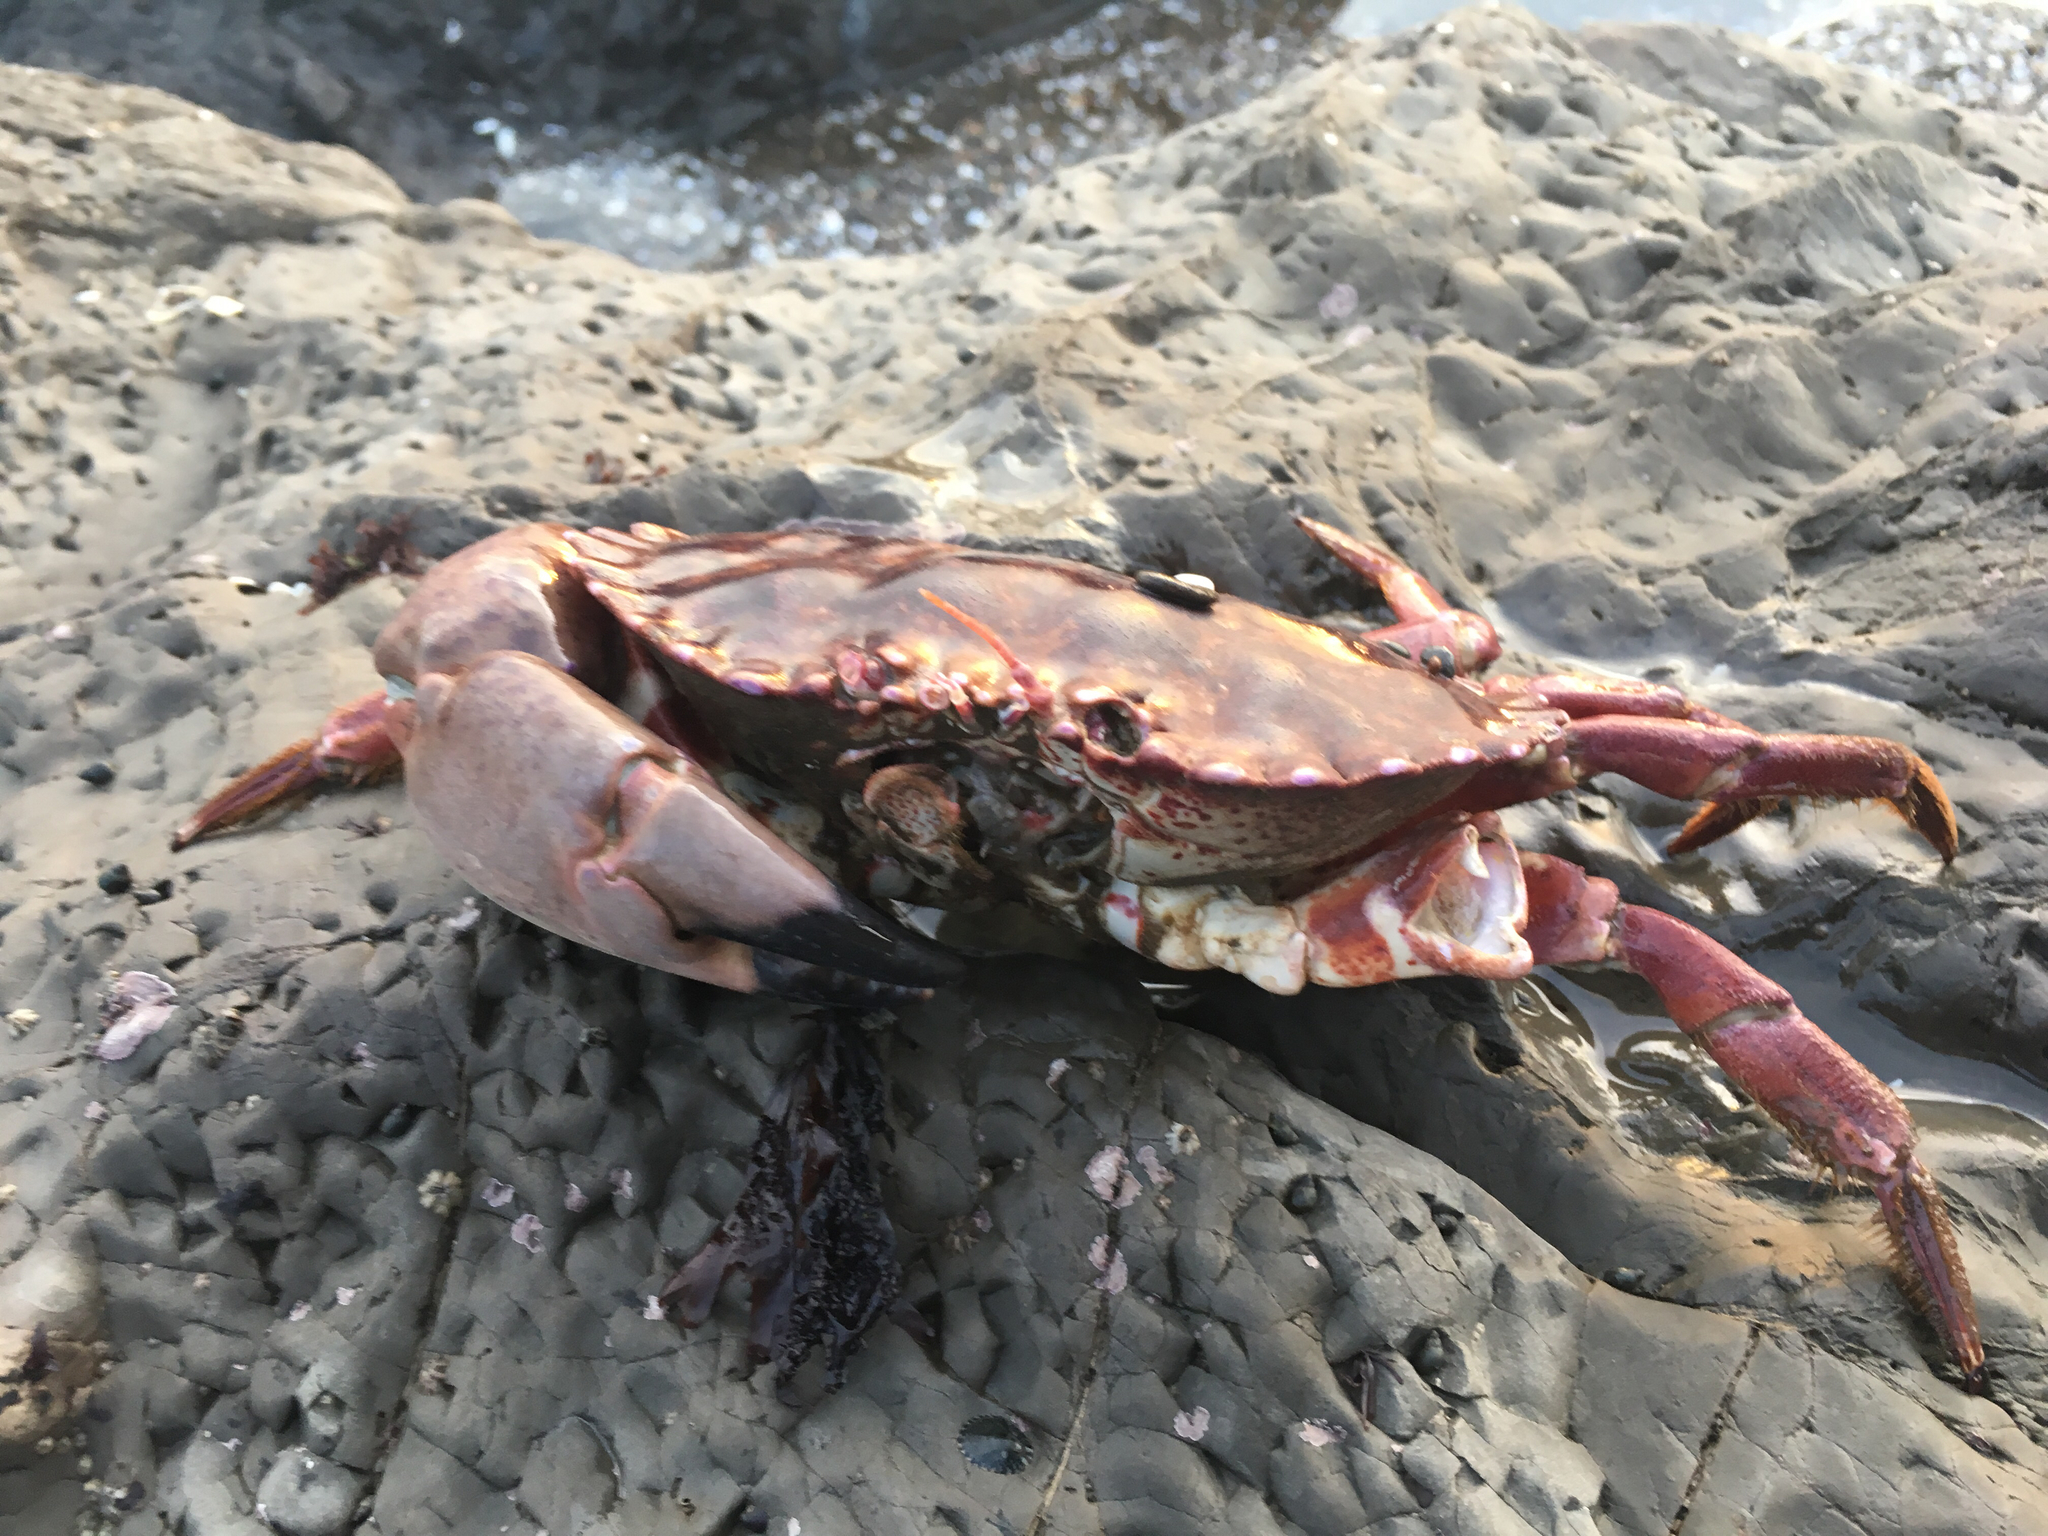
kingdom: Animalia
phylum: Arthropoda
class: Malacostraca
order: Decapoda
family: Cancridae
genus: Romaleon
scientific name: Romaleon antennarium
